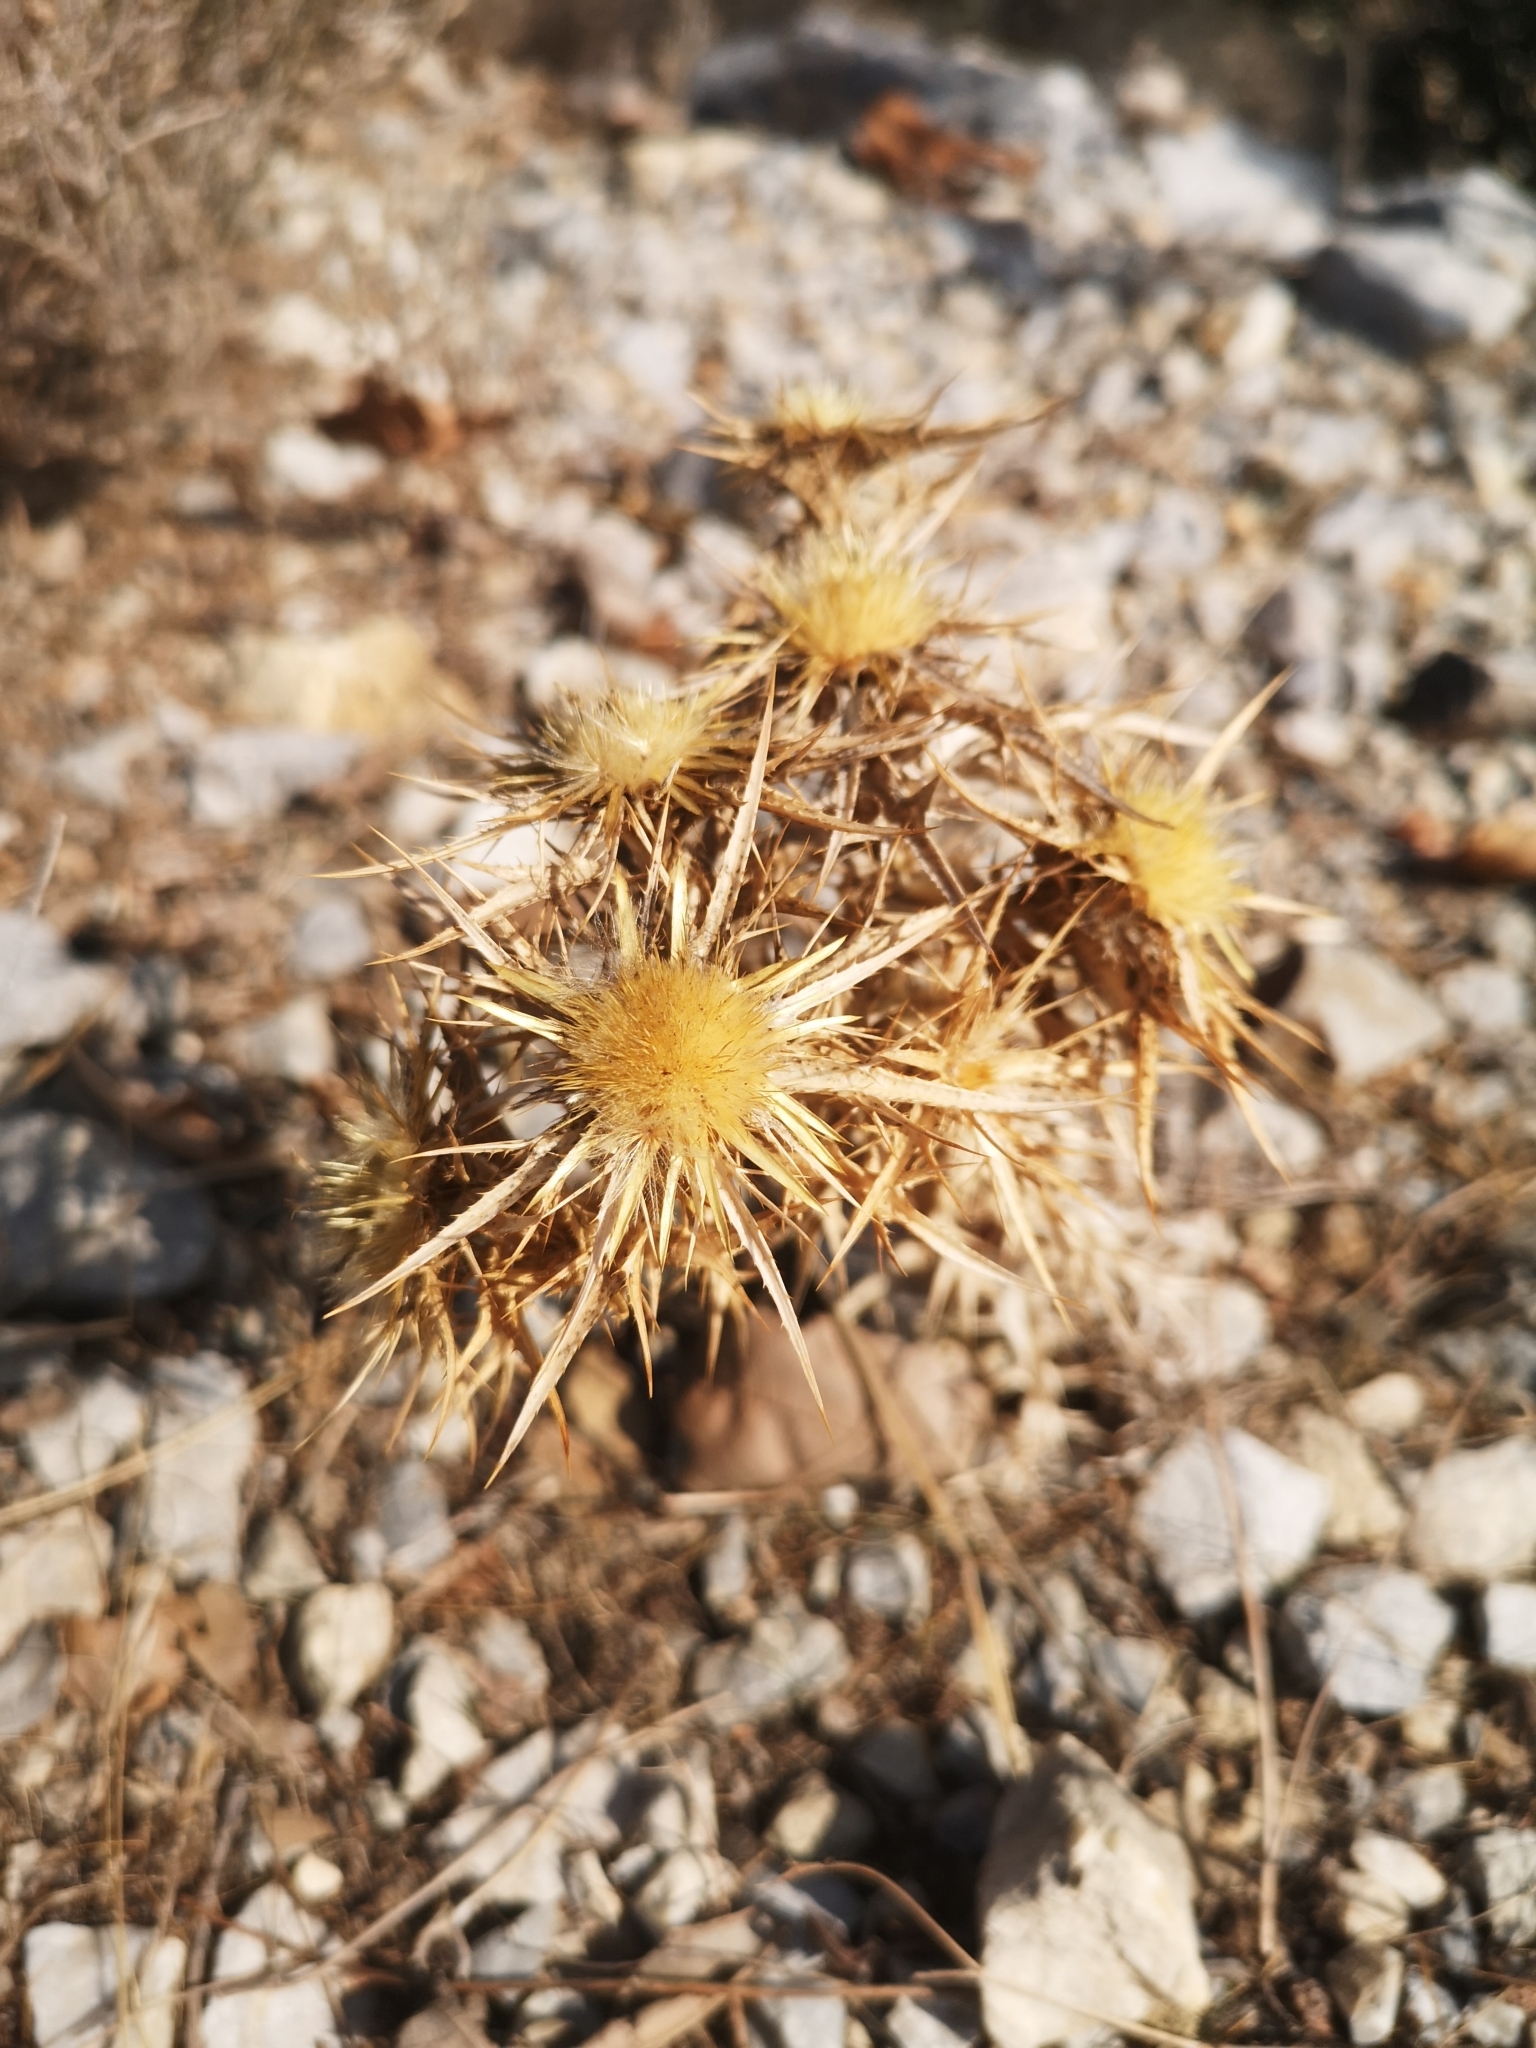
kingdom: Plantae
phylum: Tracheophyta
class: Magnoliopsida
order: Asterales
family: Asteraceae
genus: Carlina
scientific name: Carlina graeca
